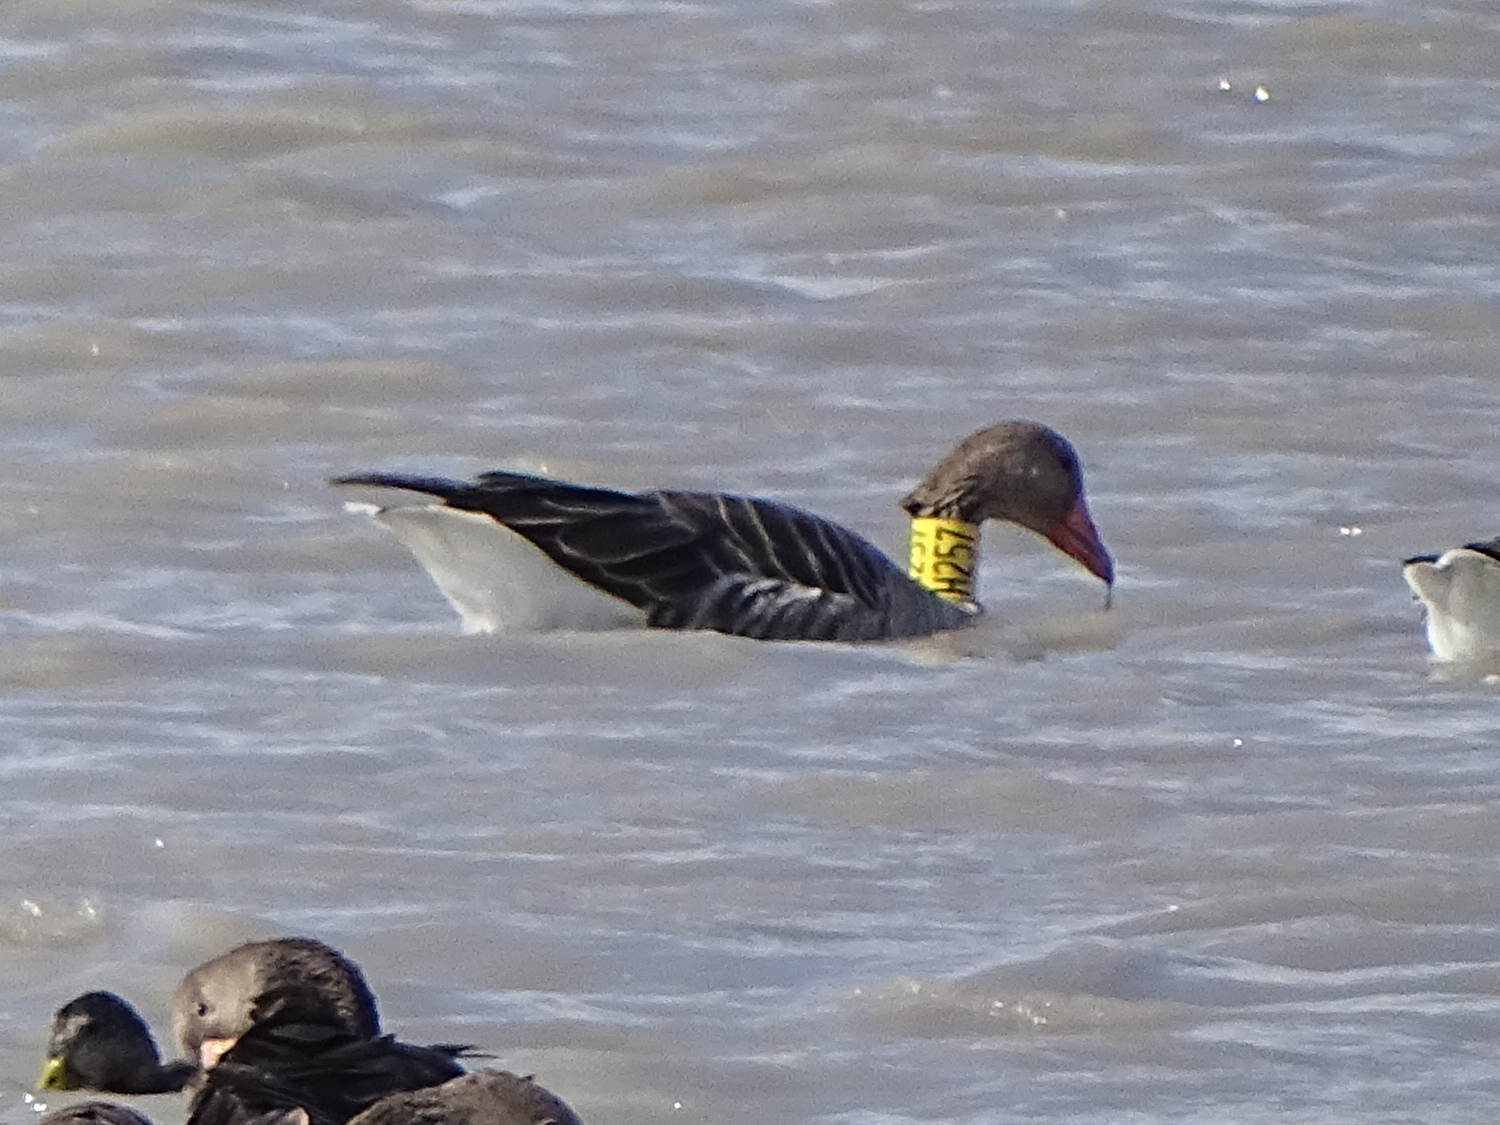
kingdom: Animalia
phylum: Chordata
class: Aves
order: Anseriformes
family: Anatidae
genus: Anser
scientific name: Anser anser
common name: Greylag goose
